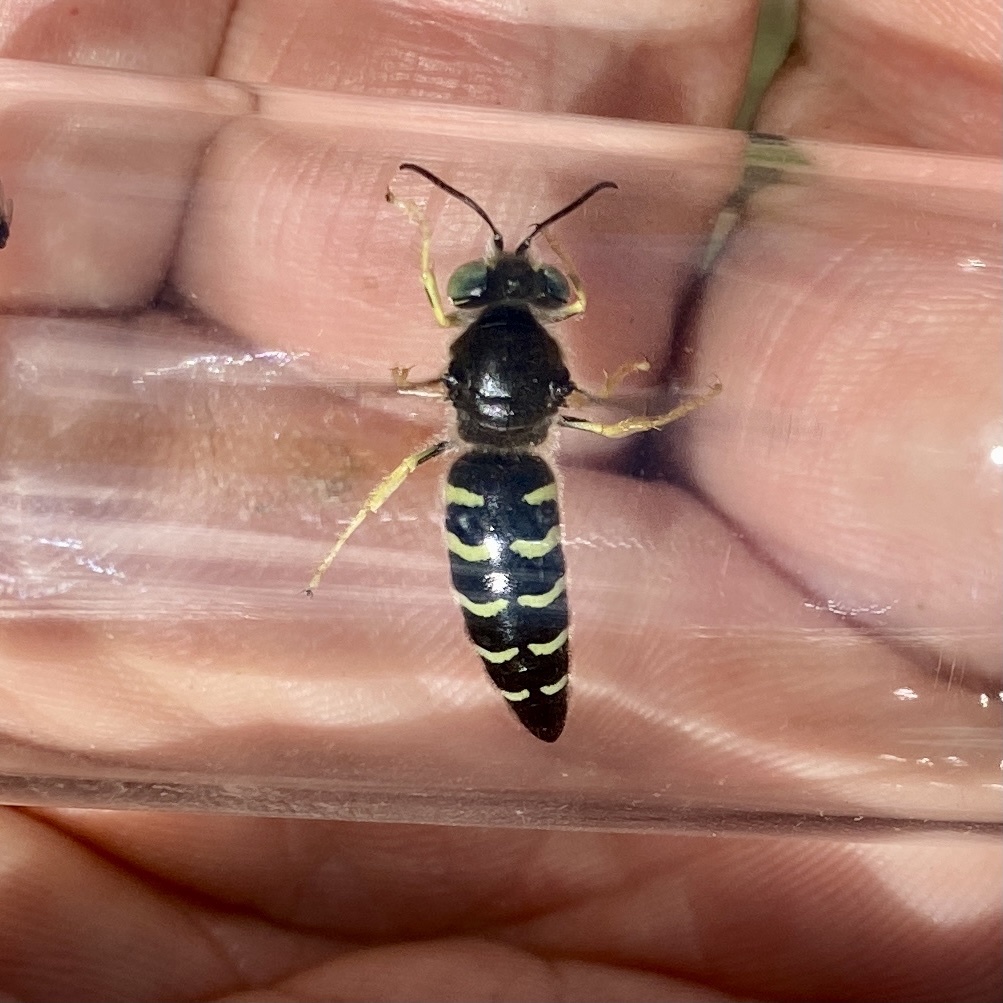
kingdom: Animalia
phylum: Arthropoda
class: Insecta
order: Hymenoptera
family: Crabronidae
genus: Bembix
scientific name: Bembix americana
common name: American sand wasp
